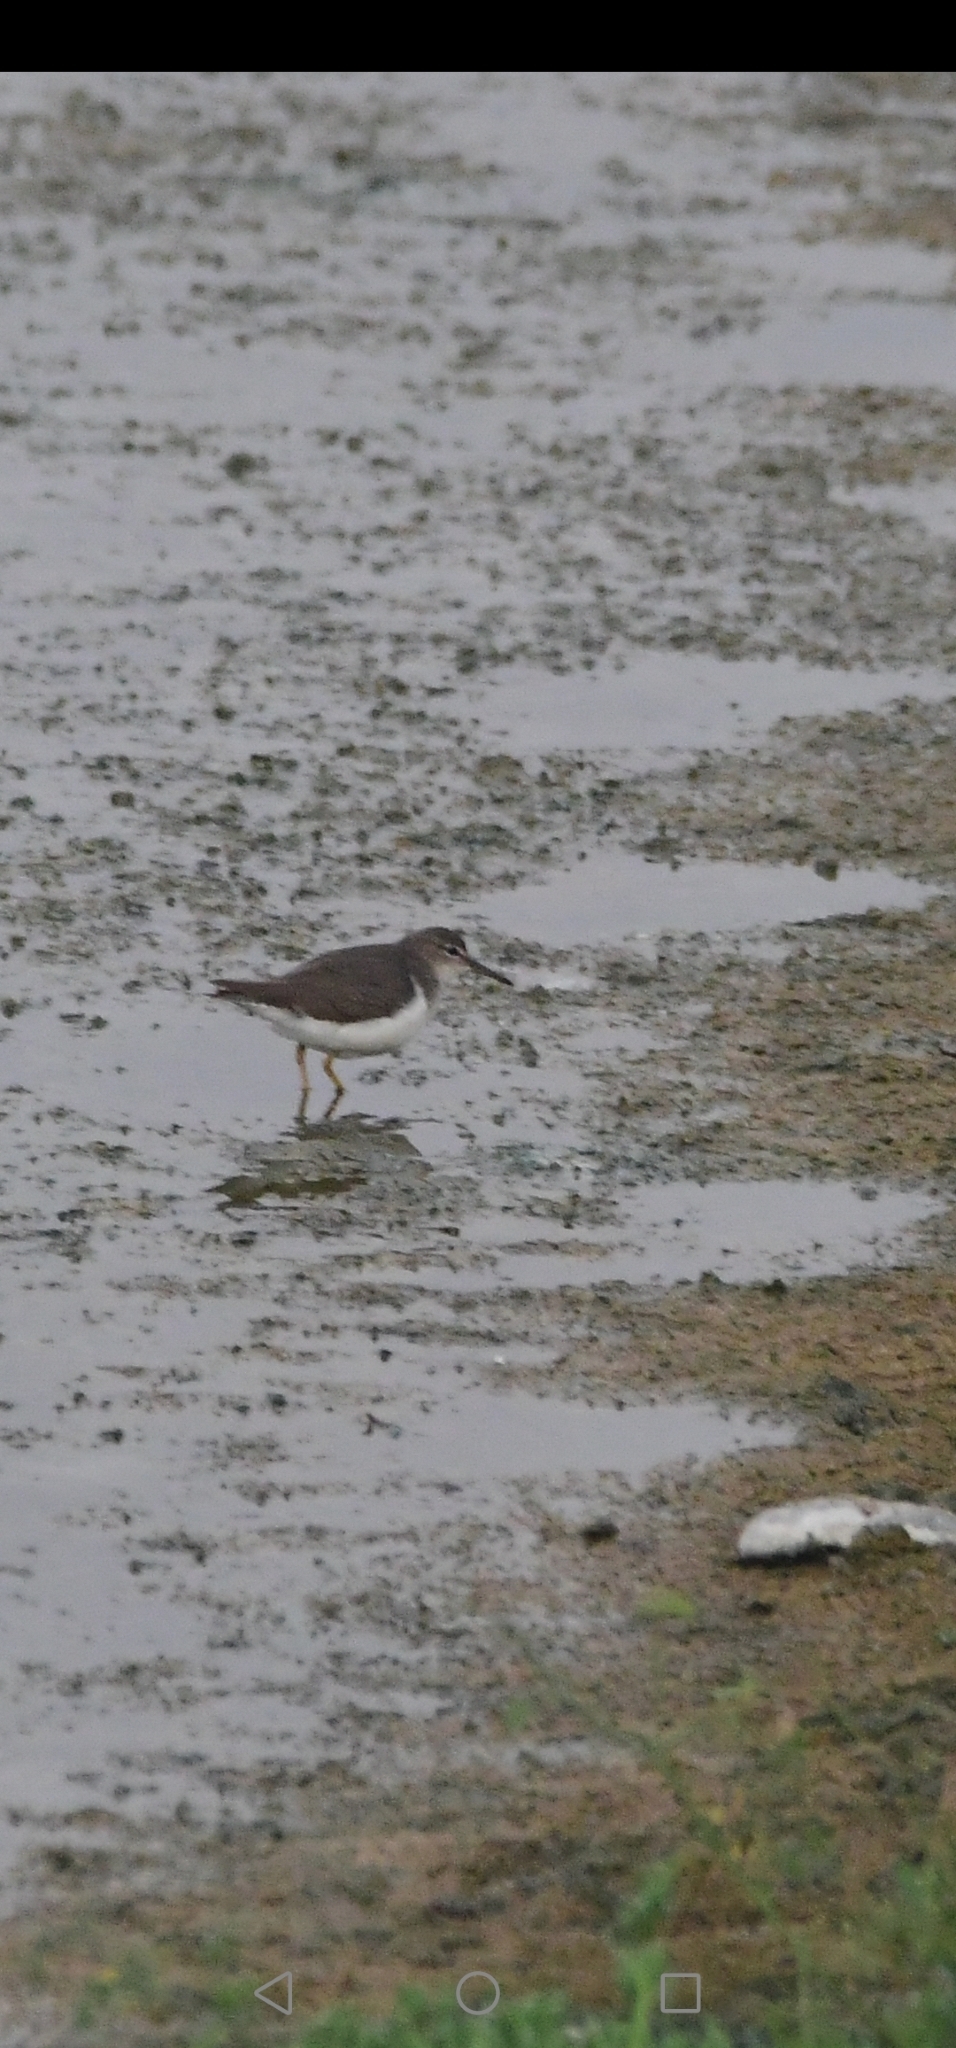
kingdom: Animalia
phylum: Chordata
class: Aves
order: Charadriiformes
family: Scolopacidae
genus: Actitis
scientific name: Actitis macularius
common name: Spotted sandpiper
